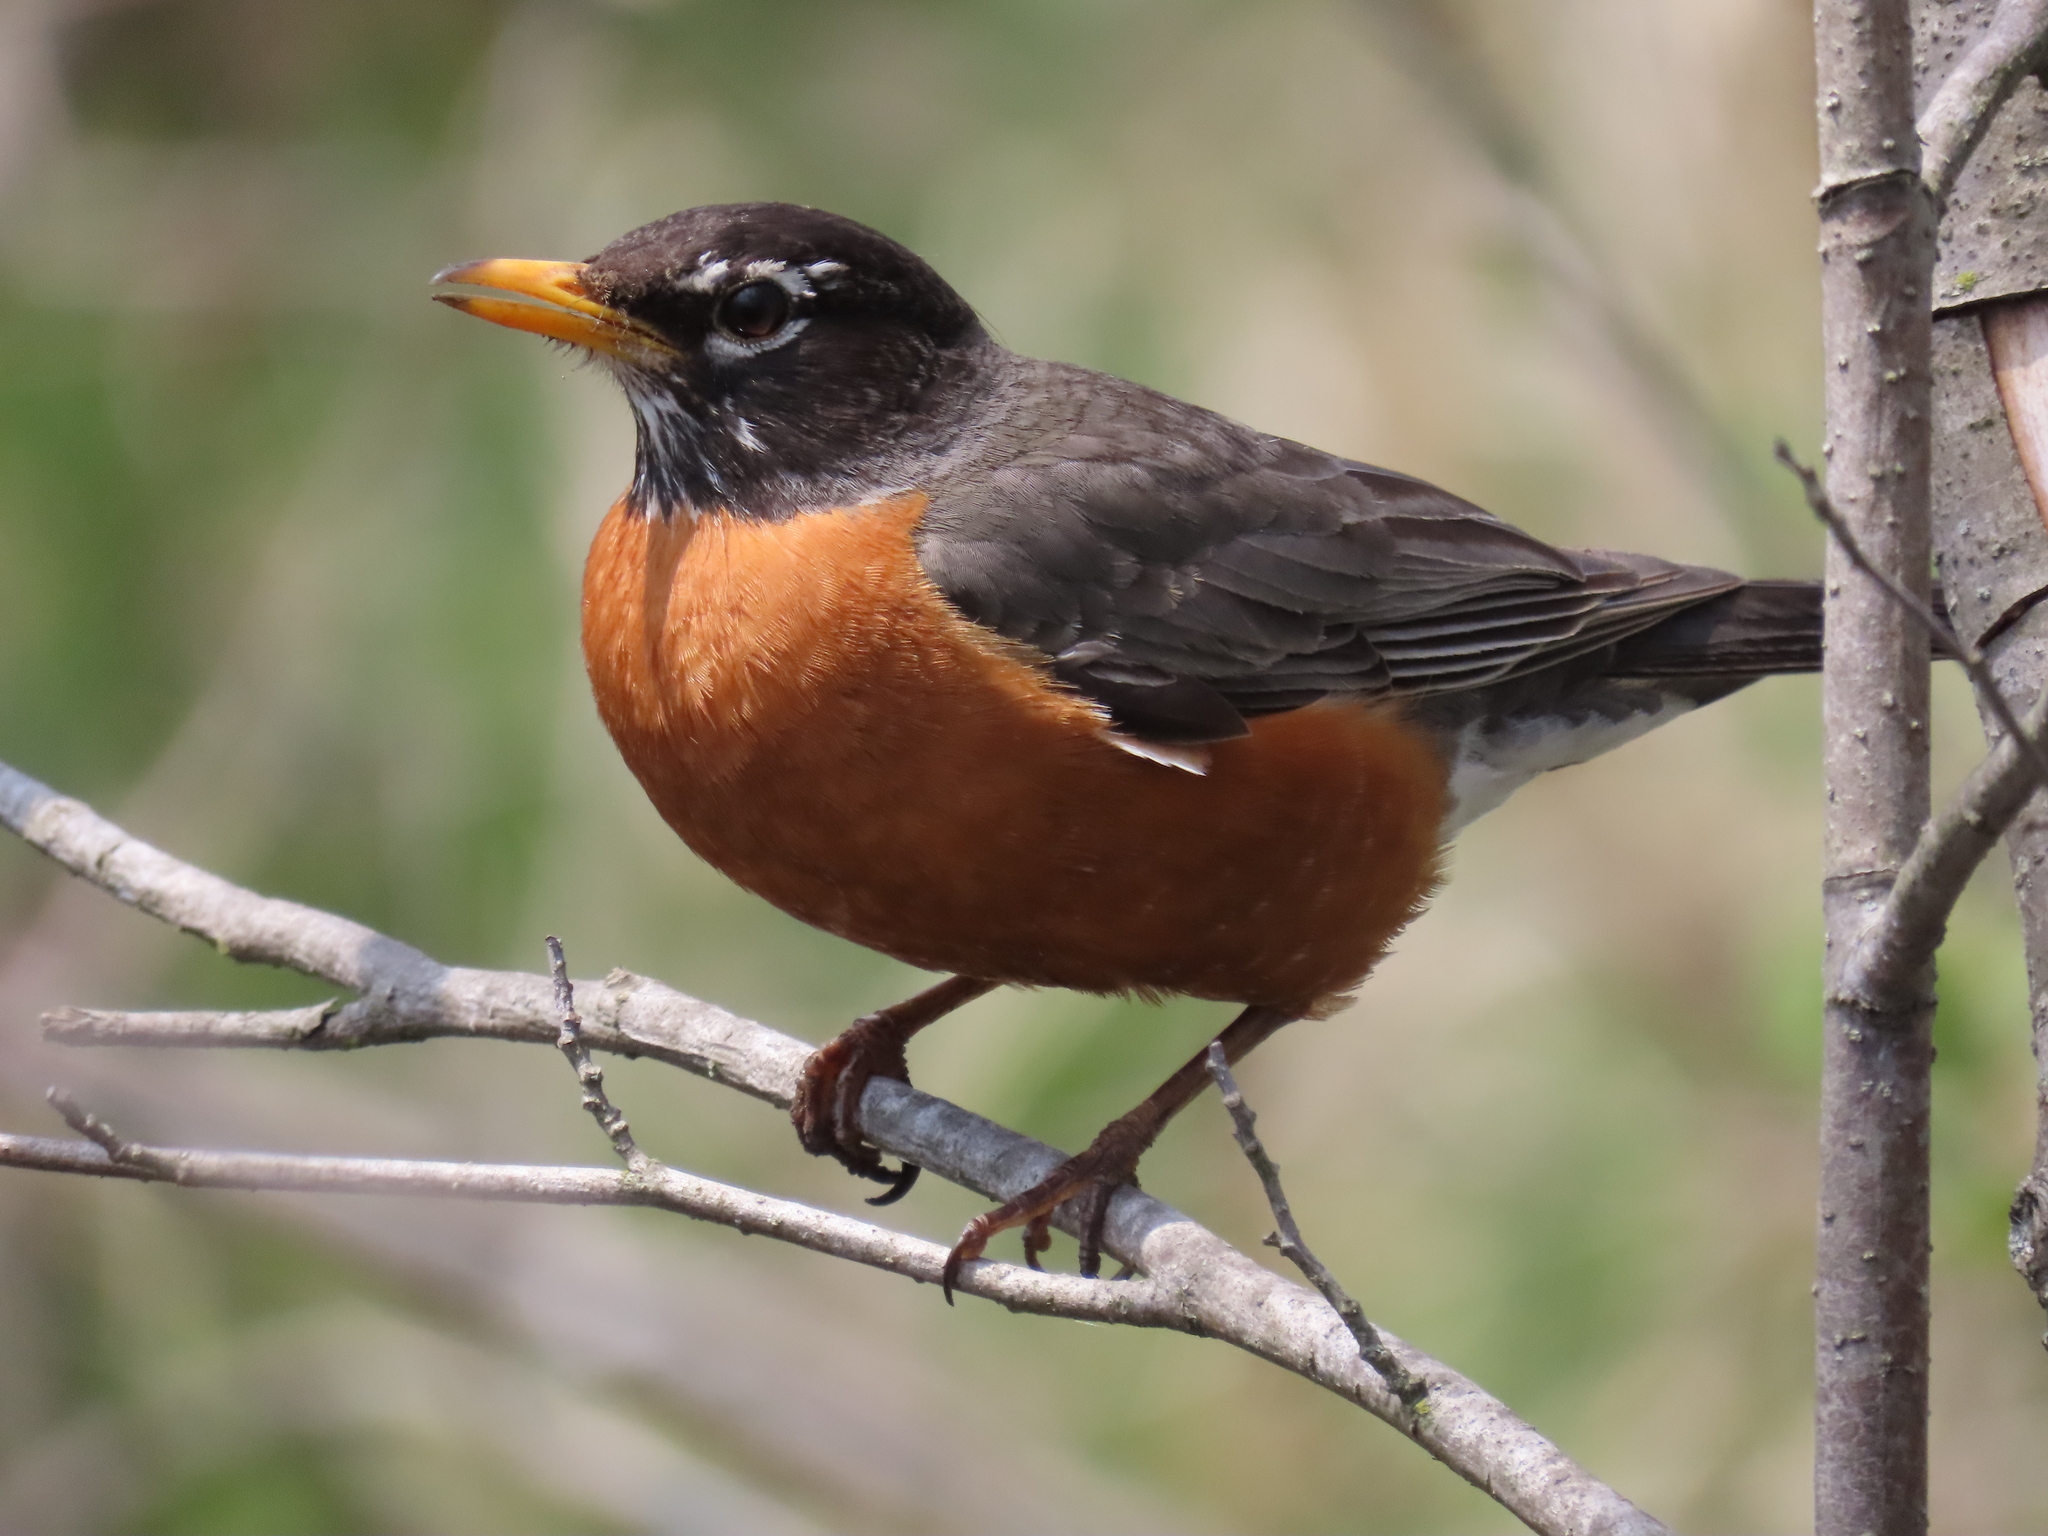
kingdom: Animalia
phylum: Chordata
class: Aves
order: Passeriformes
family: Turdidae
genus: Turdus
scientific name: Turdus migratorius
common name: American robin
